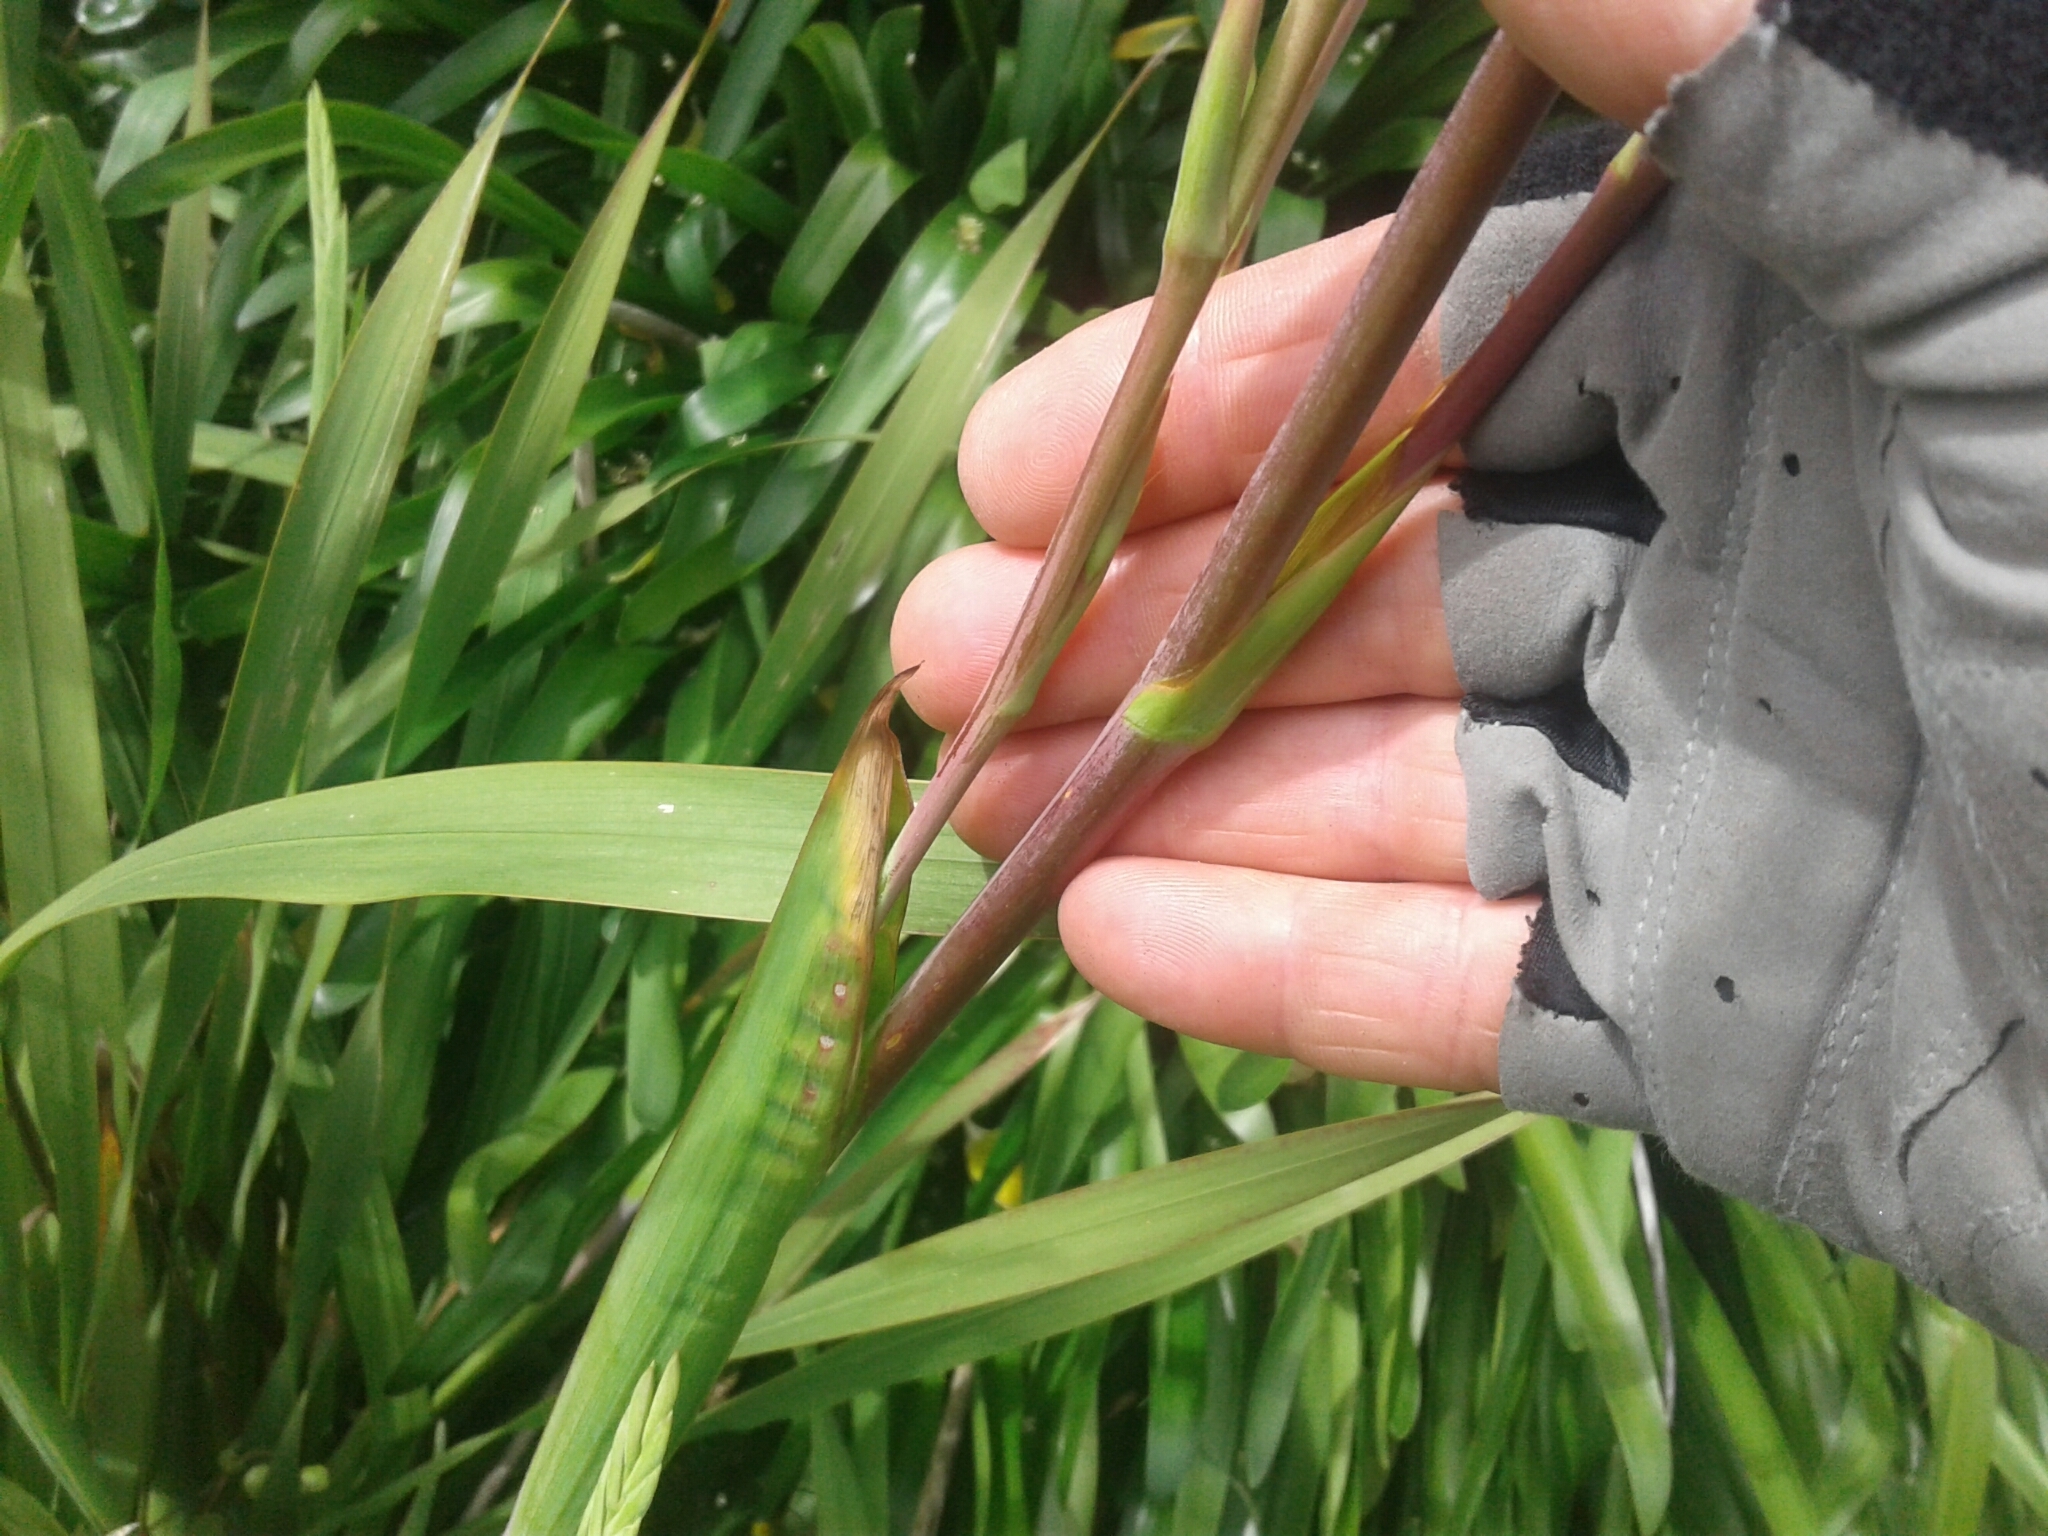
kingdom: Plantae
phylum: Tracheophyta
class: Liliopsida
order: Asparagales
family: Iridaceae
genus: Watsonia
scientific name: Watsonia meriana
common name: Bulbil bugle-lily
